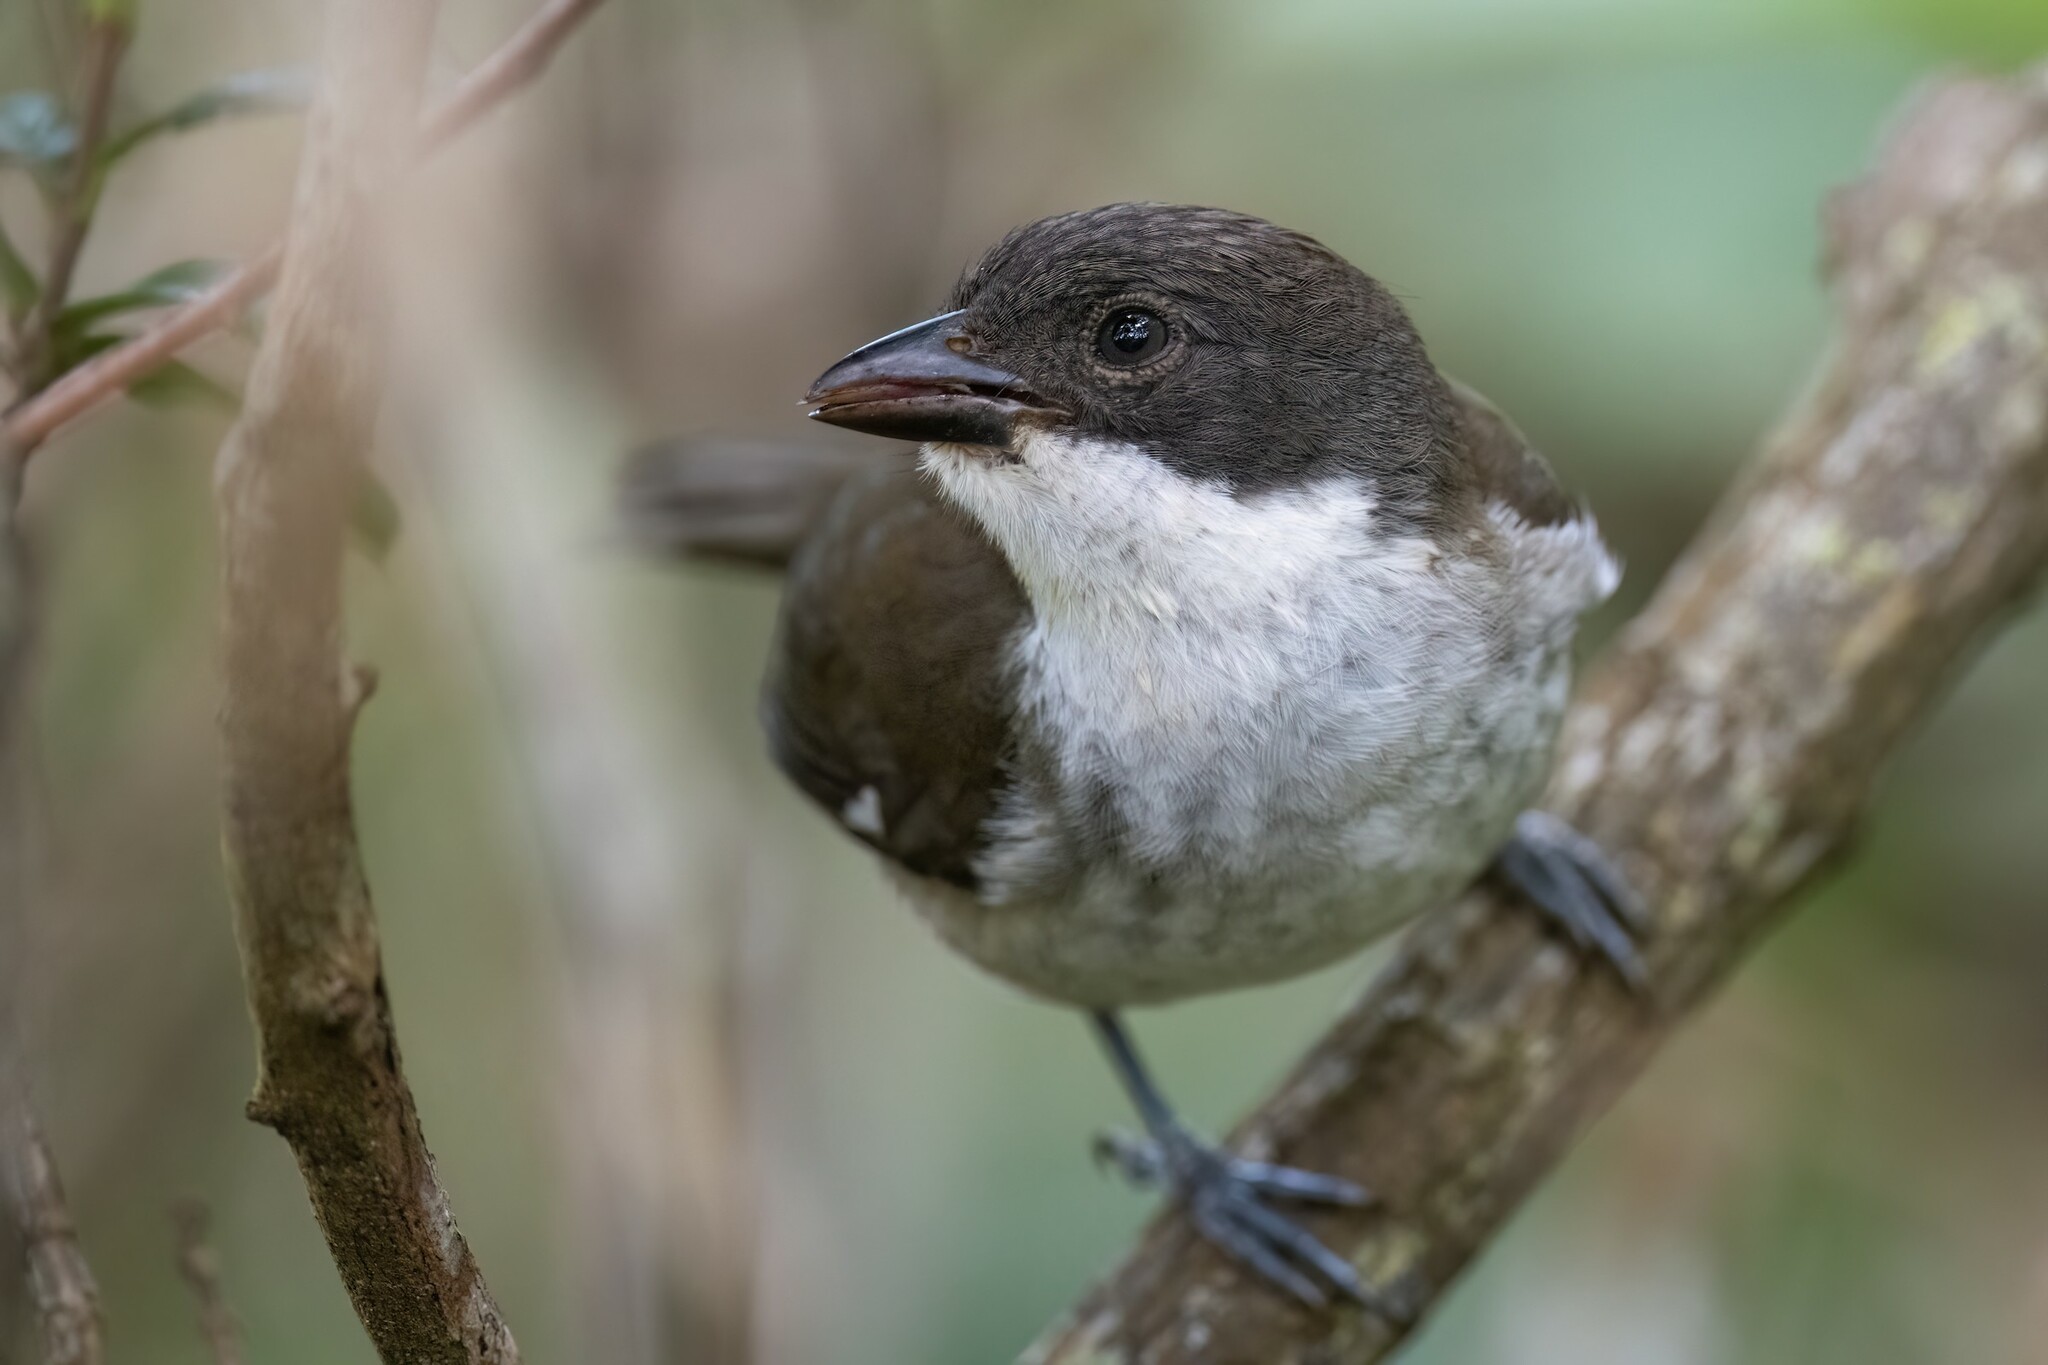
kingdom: Animalia
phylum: Chordata
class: Aves
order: Passeriformes
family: Nesospingidae
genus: Nesospingus
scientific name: Nesospingus speculiferus
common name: Puerto rican tanager
